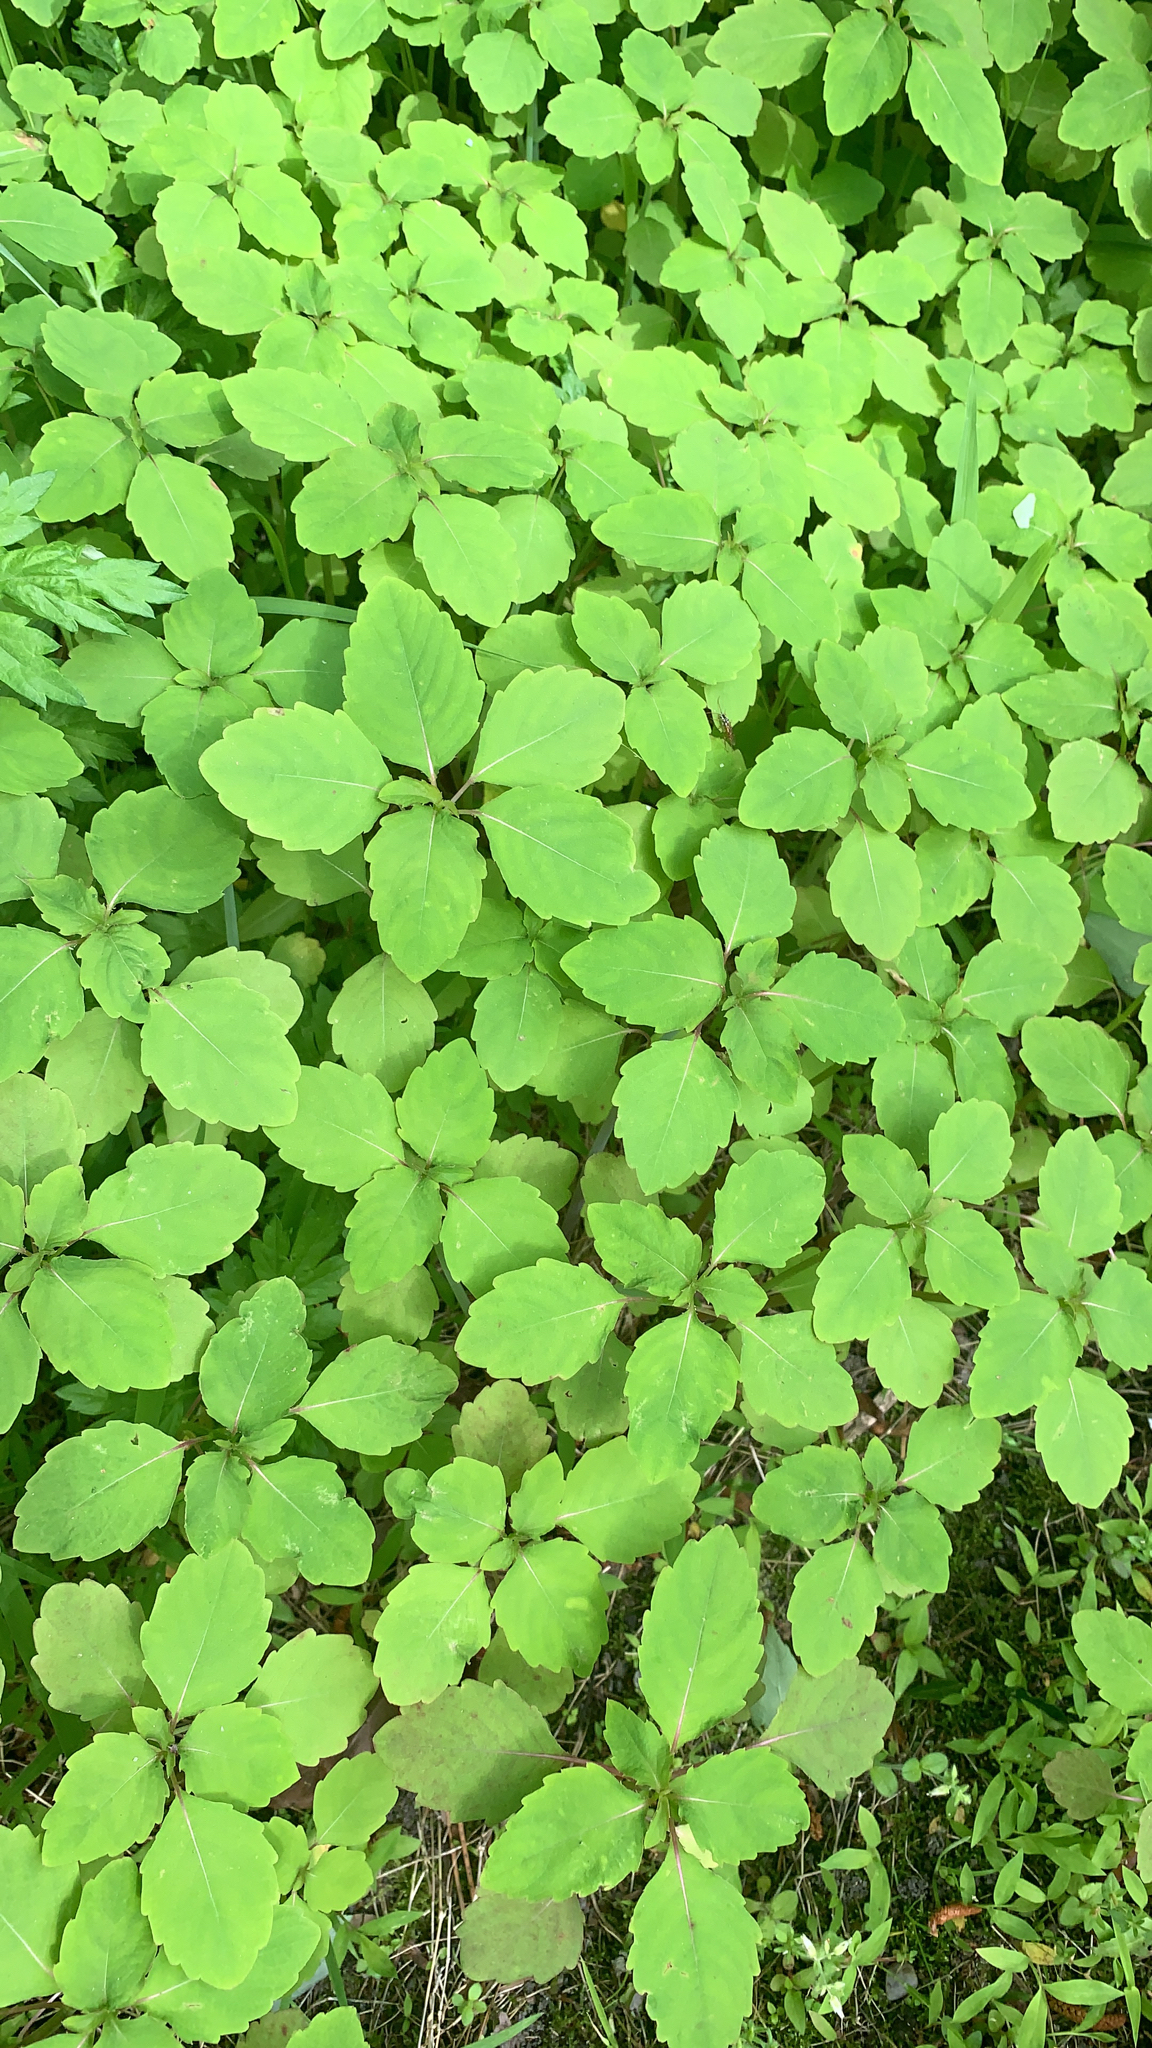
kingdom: Plantae
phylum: Tracheophyta
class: Magnoliopsida
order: Ericales
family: Balsaminaceae
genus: Impatiens
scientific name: Impatiens capensis
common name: Orange balsam
